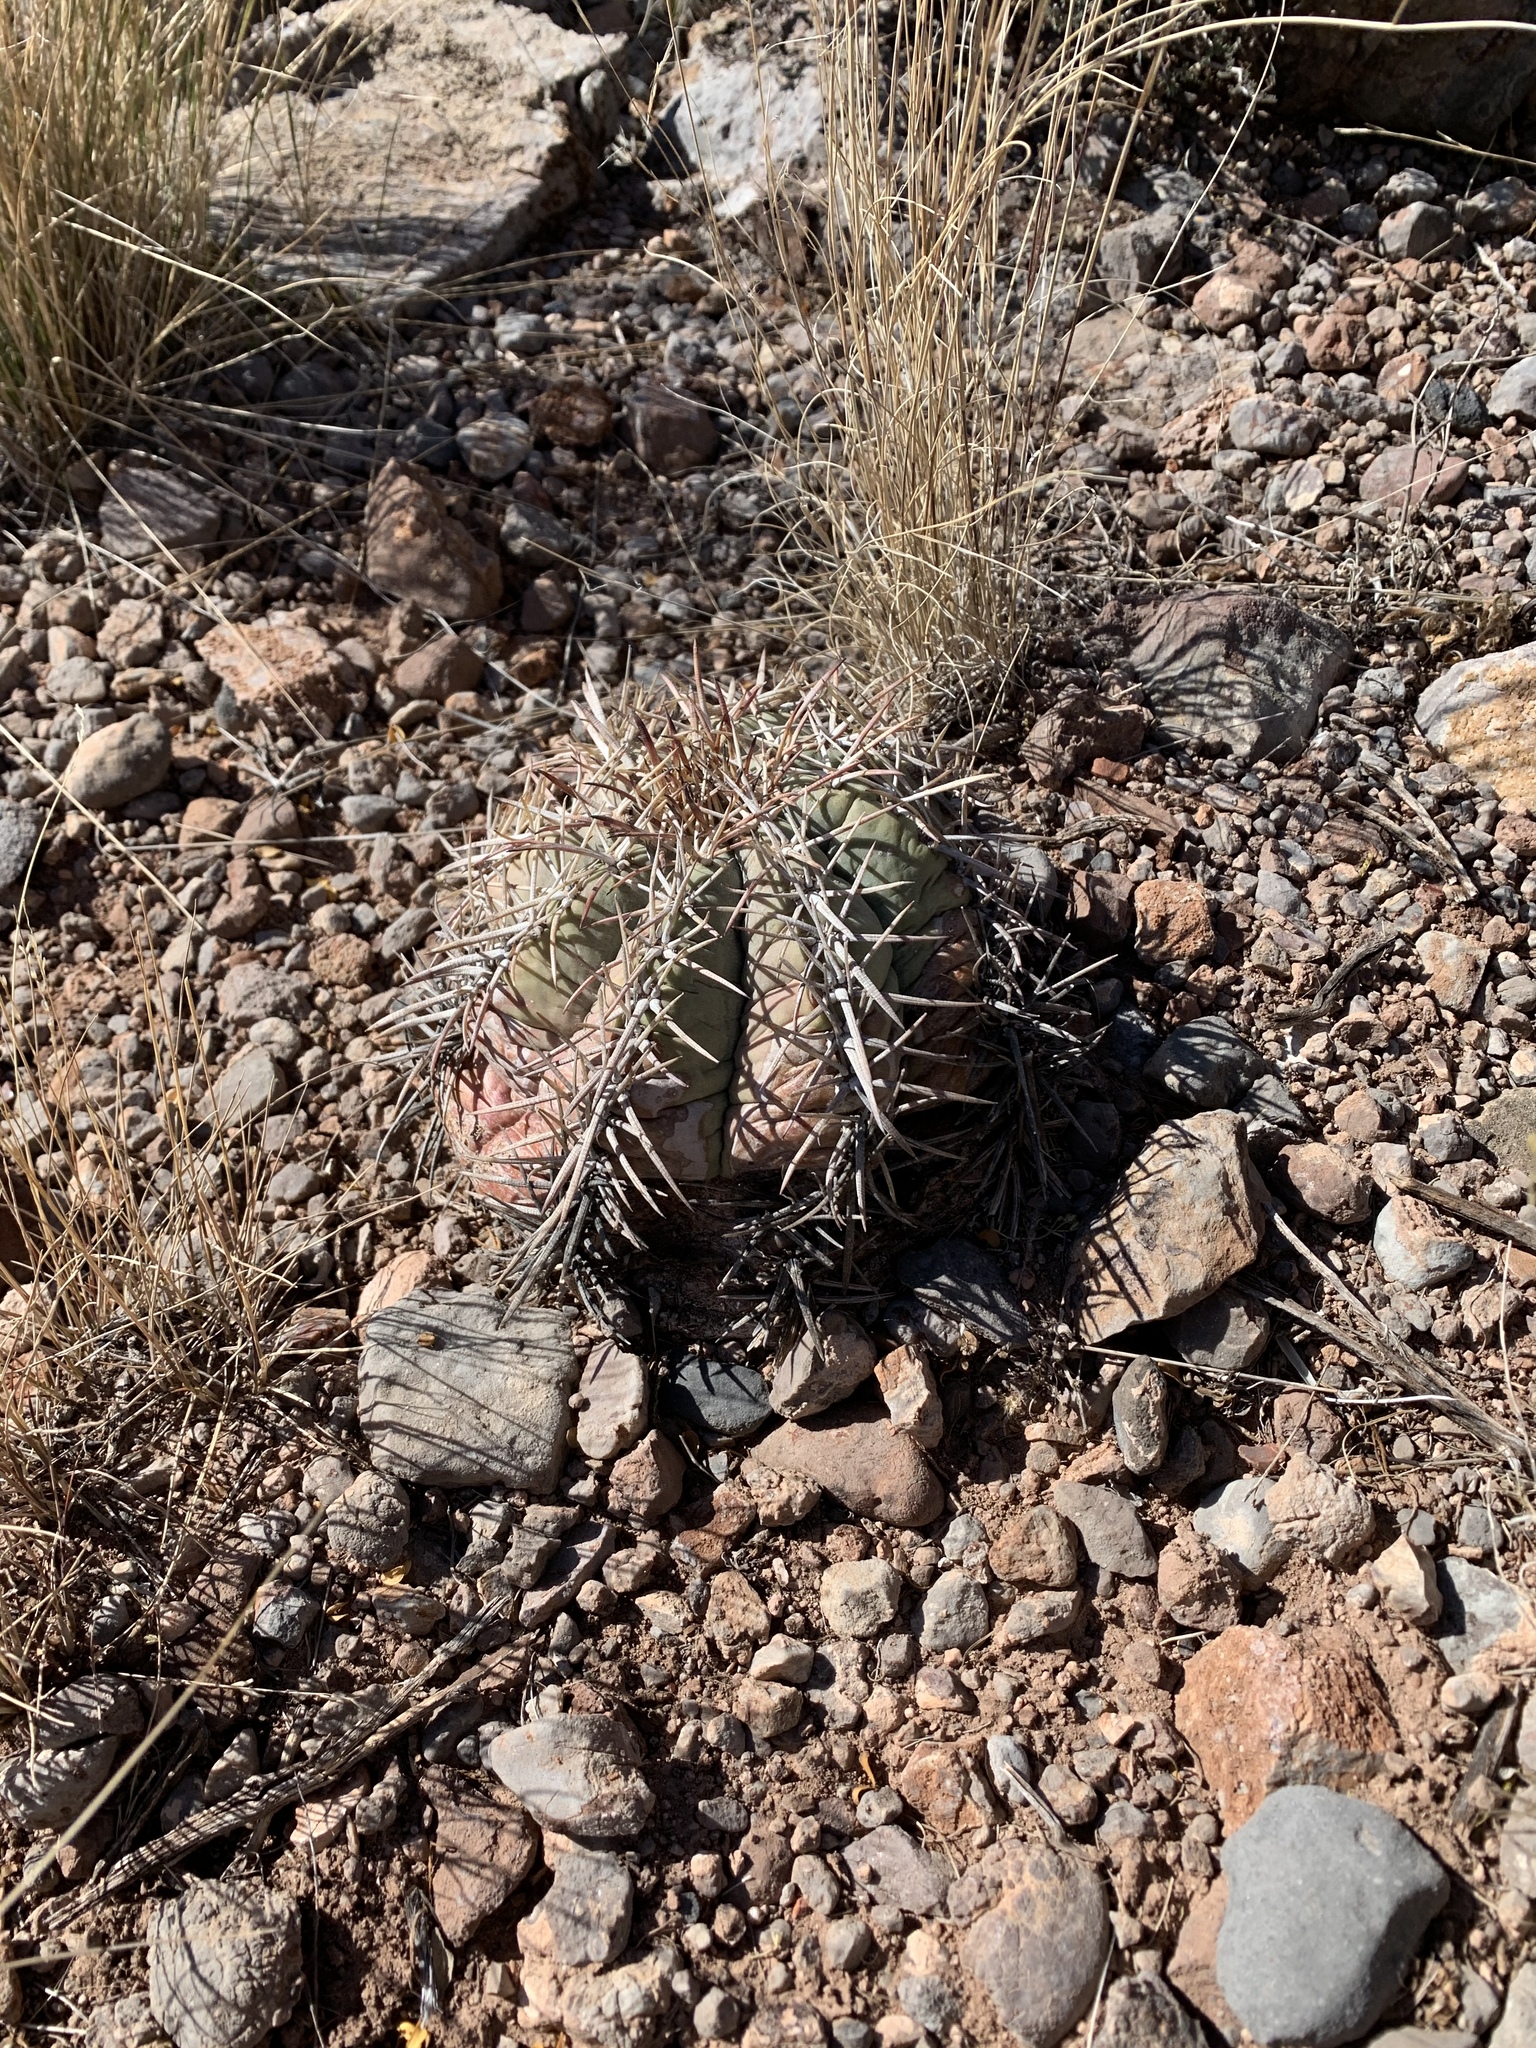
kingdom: Plantae
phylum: Tracheophyta
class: Magnoliopsida
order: Caryophyllales
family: Cactaceae
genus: Echinocactus
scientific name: Echinocactus horizonthalonius
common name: Devilshead
